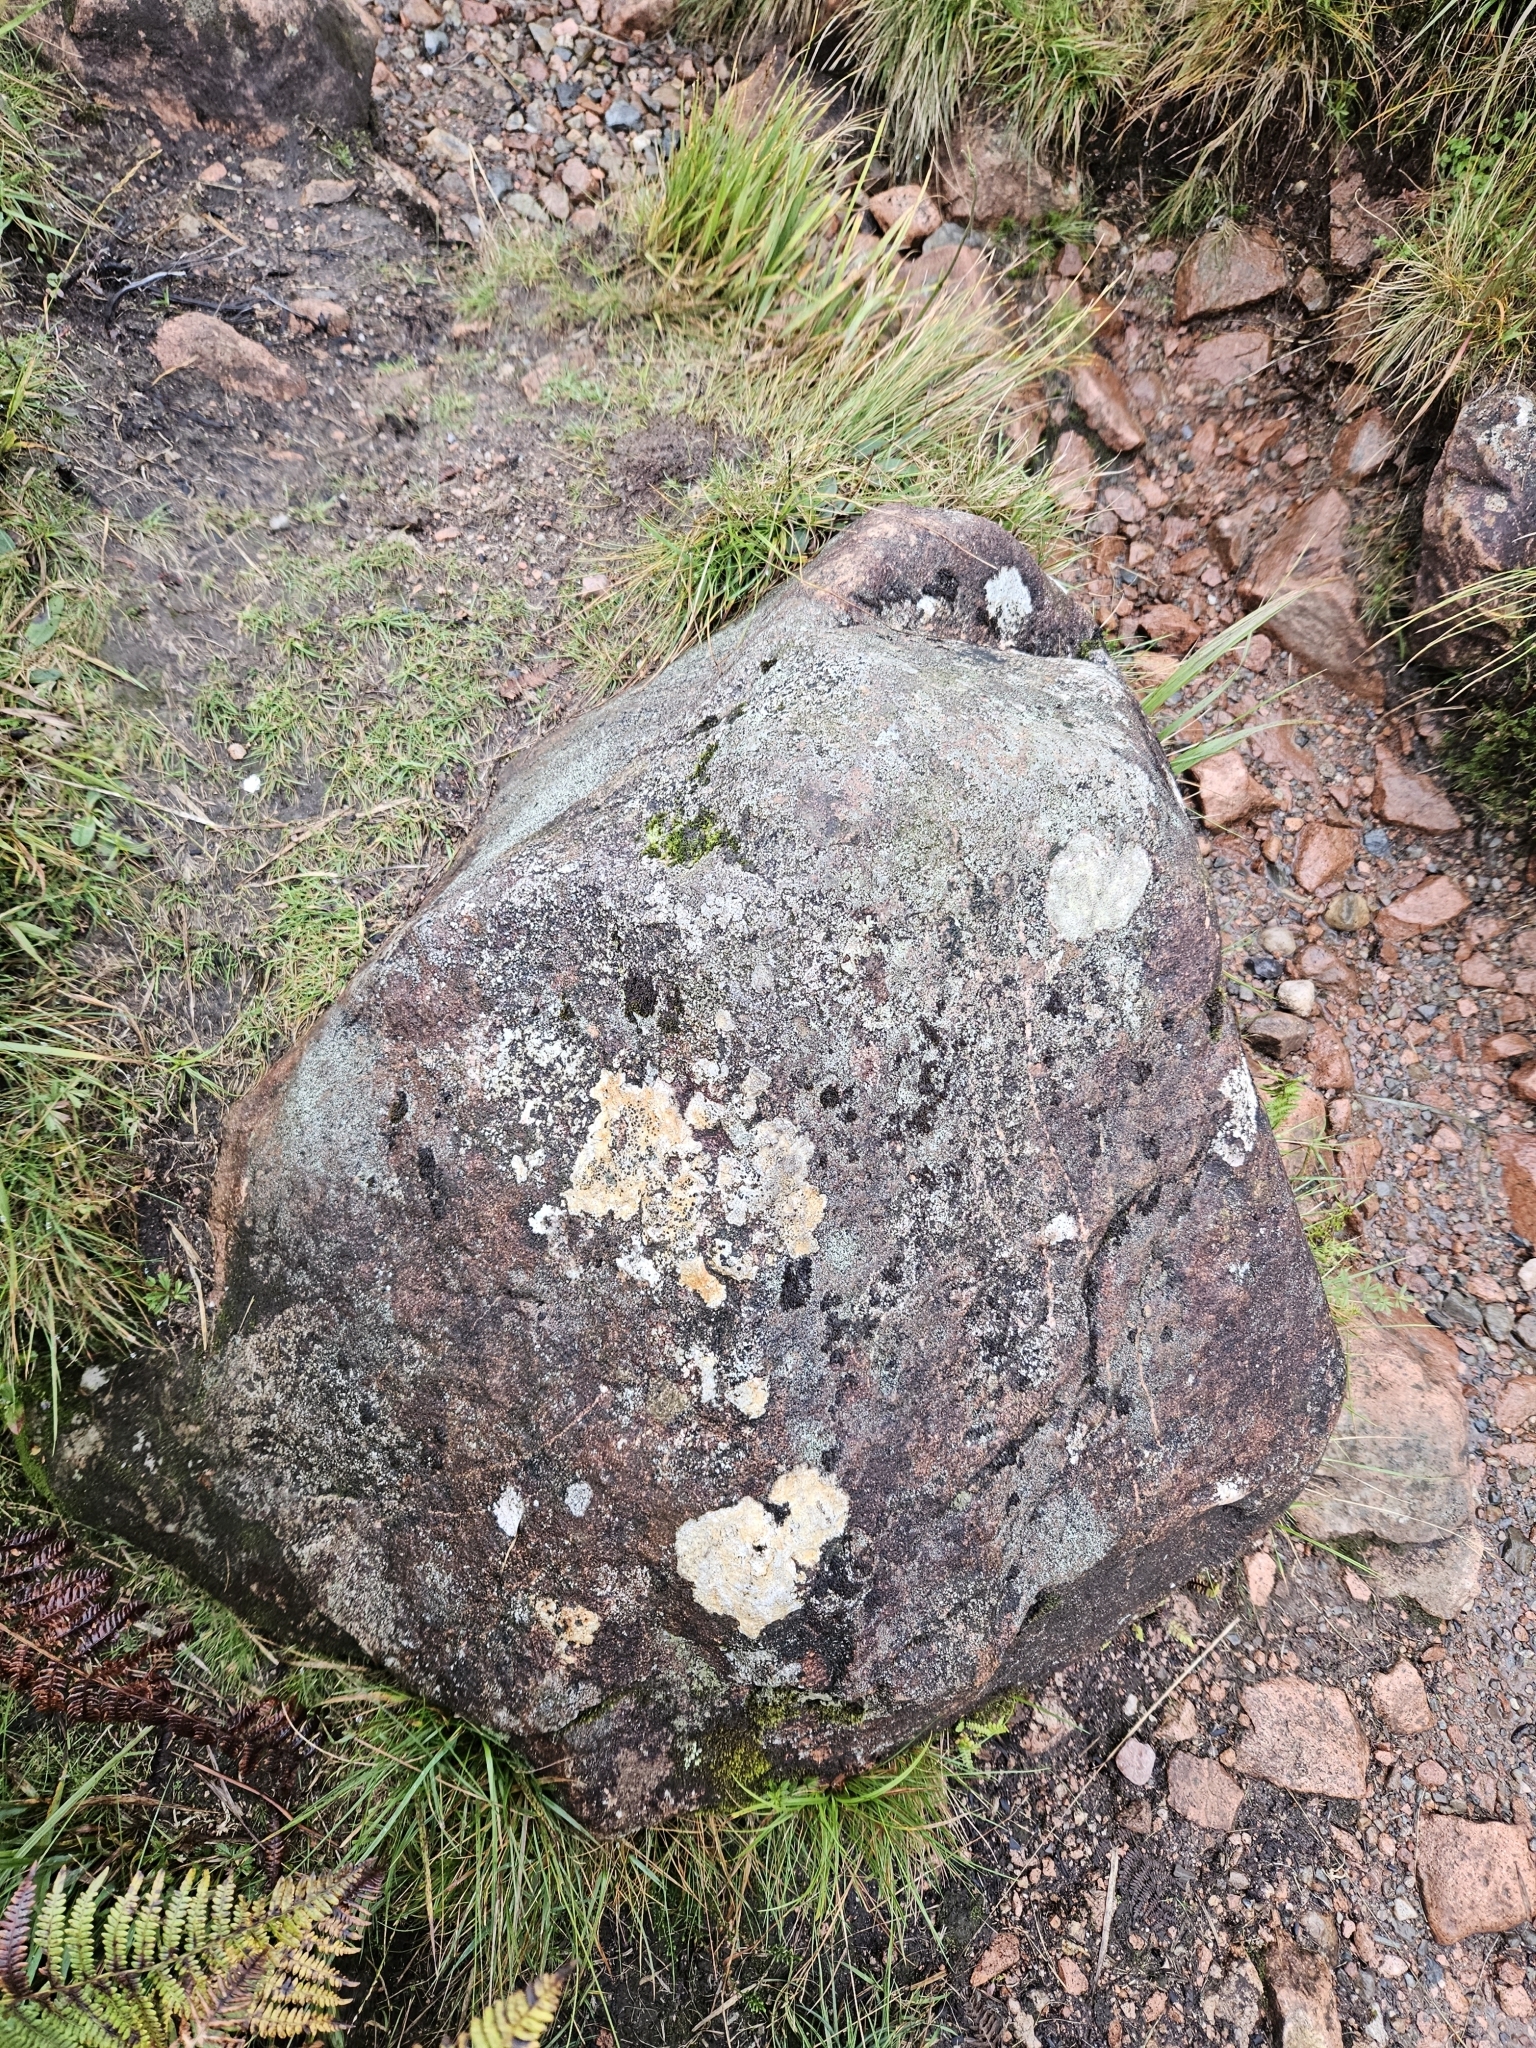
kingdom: Plantae
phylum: Bryophyta
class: Andreaeopsida
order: Andreaeales
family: Andreaeaceae
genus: Andreaea
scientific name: Andreaea rupestris
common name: Black rock moss
